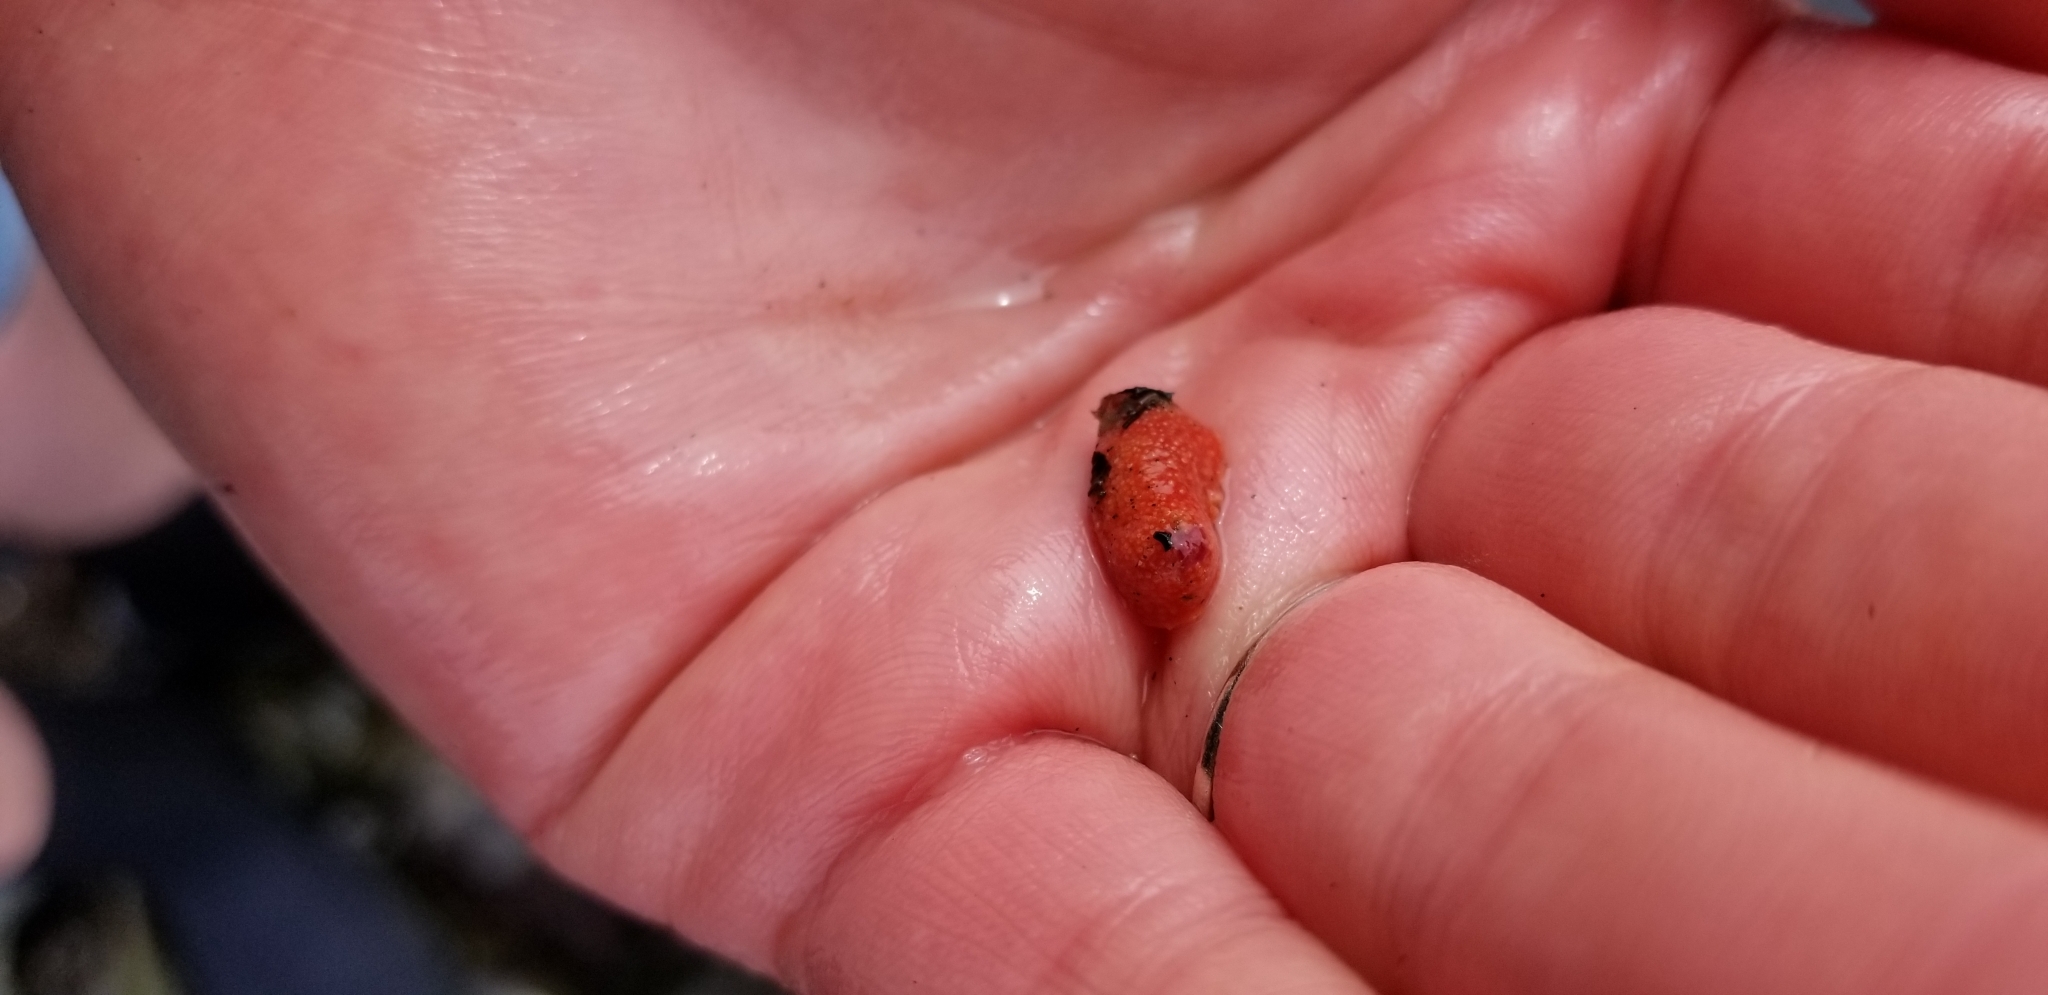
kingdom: Animalia
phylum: Echinodermata
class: Holothuroidea
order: Dendrochirotida
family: Psolidae
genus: Lissothuria
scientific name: Lissothuria nutriens
